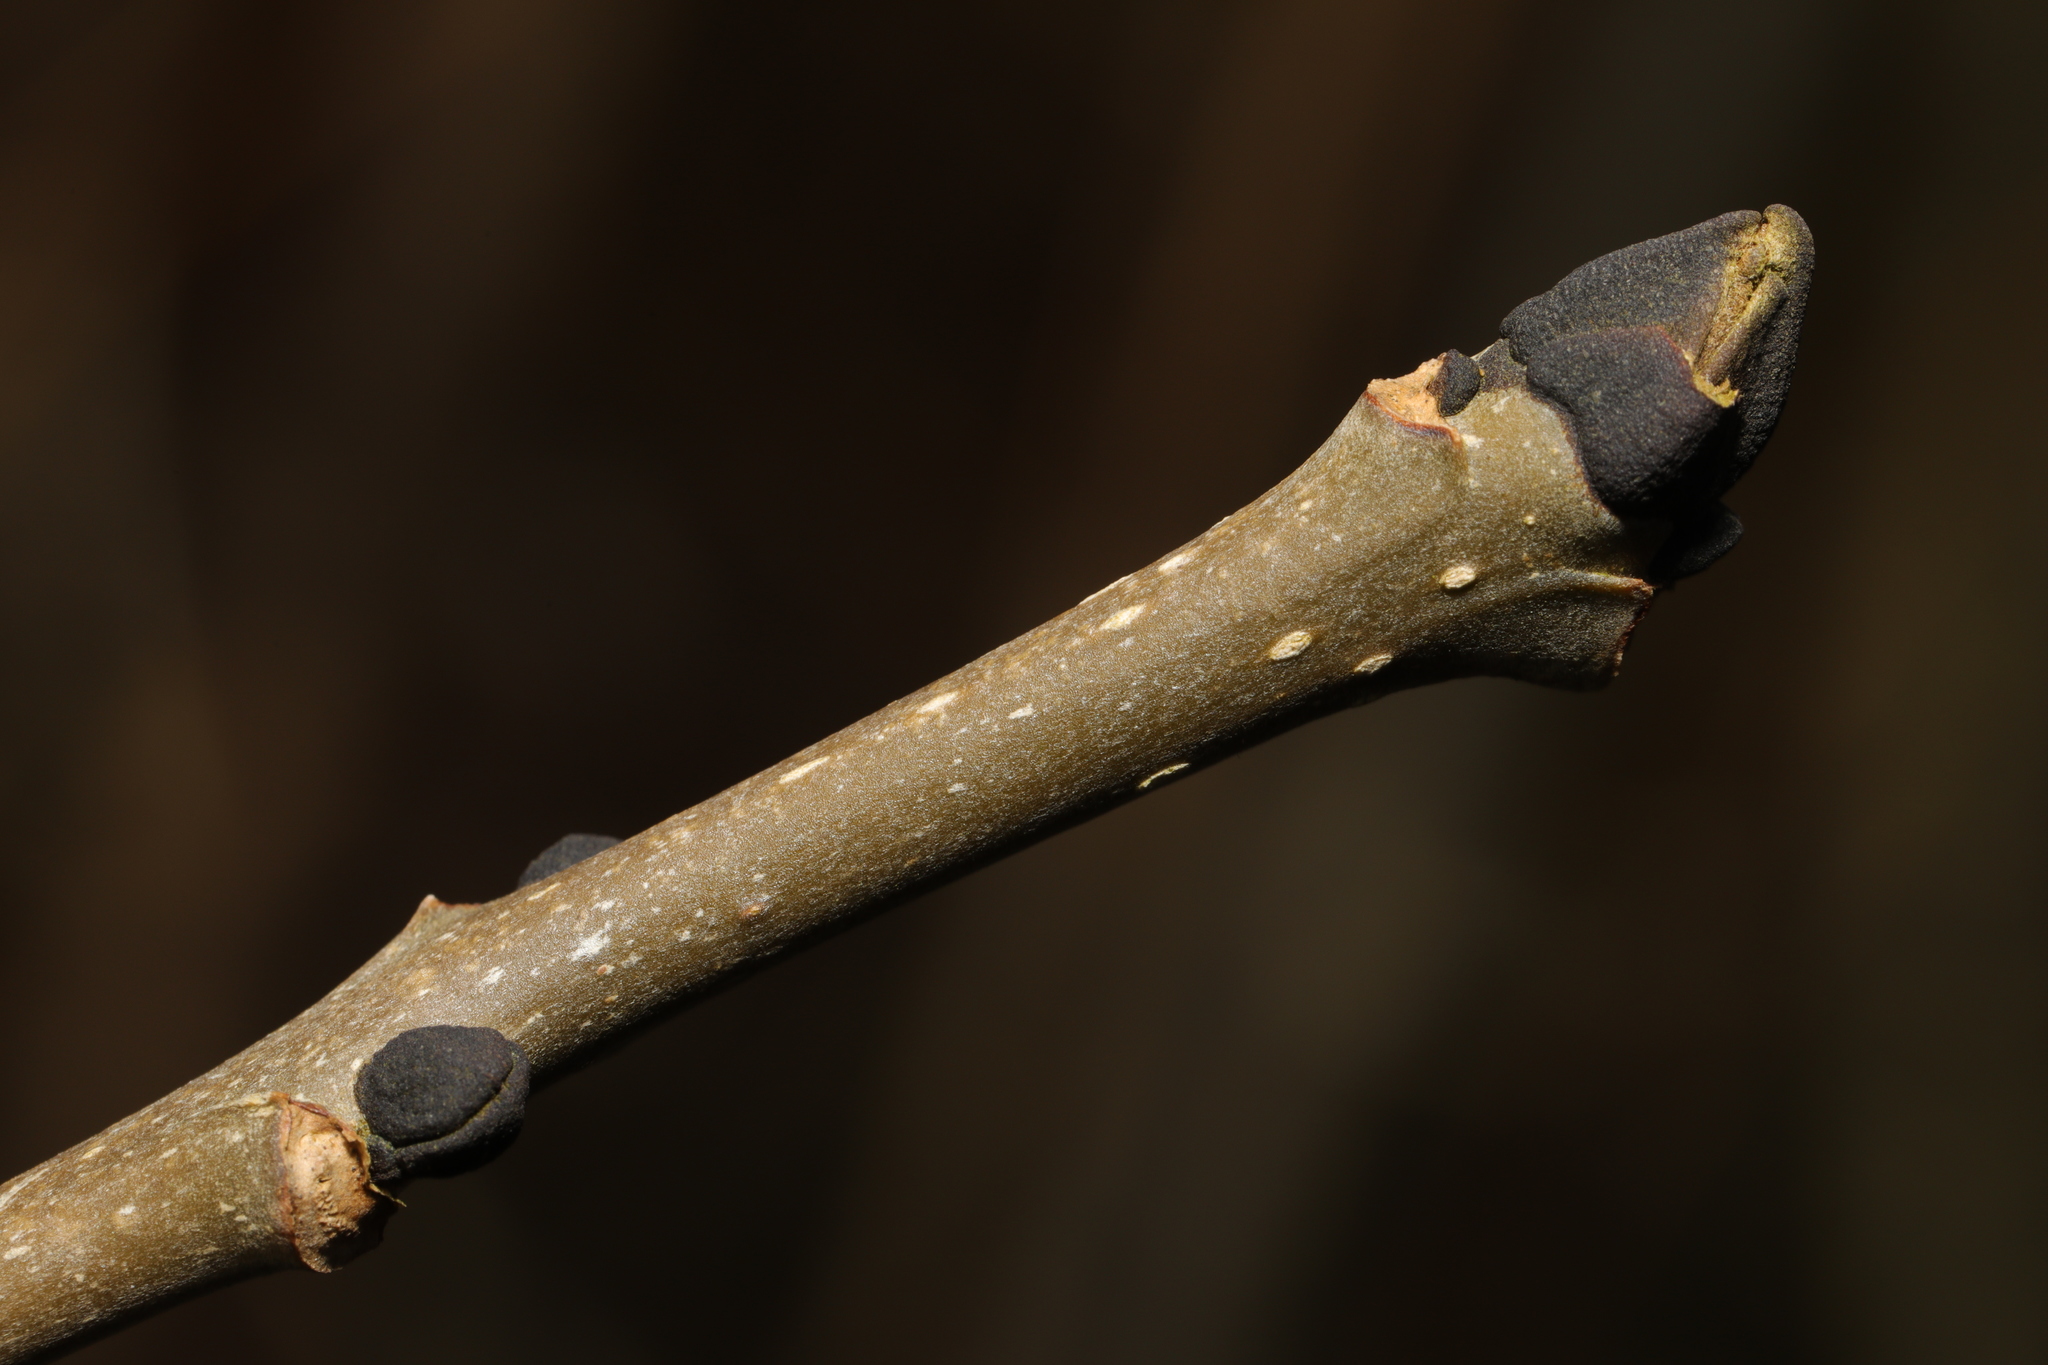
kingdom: Plantae
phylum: Tracheophyta
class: Magnoliopsida
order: Lamiales
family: Oleaceae
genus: Fraxinus
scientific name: Fraxinus excelsior
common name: European ash
